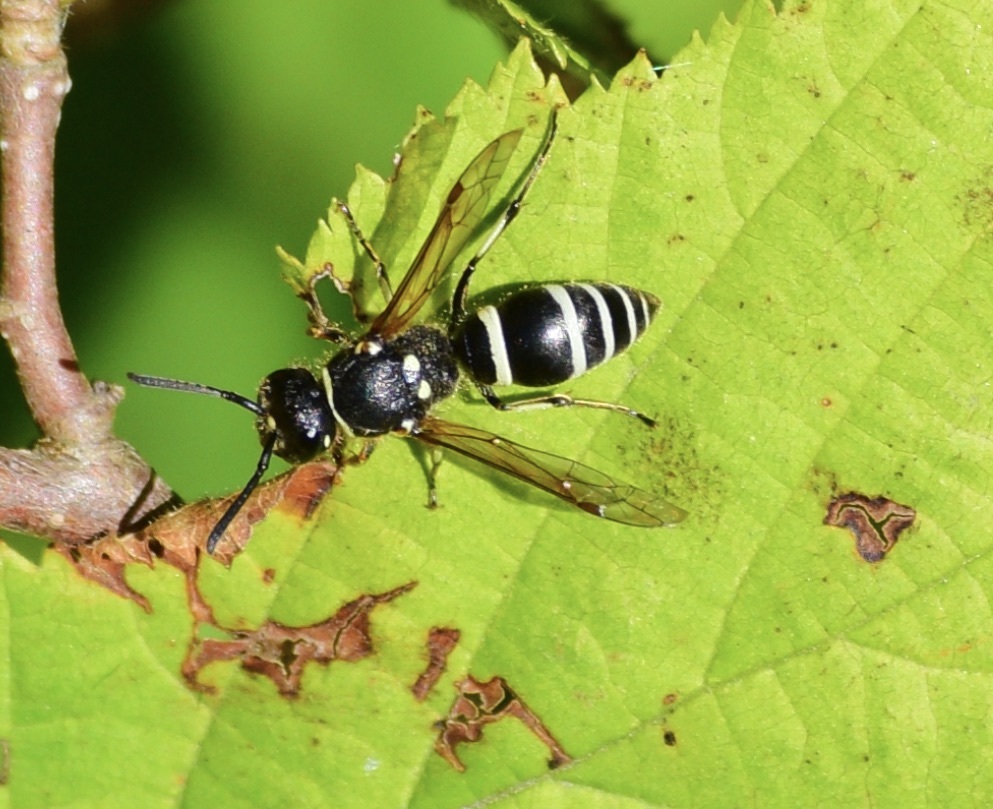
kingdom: Animalia
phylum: Arthropoda
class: Insecta
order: Hymenoptera
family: Vespidae
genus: Ancistrocerus
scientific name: Ancistrocerus albophaleratus
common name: White-banded potter wasp
